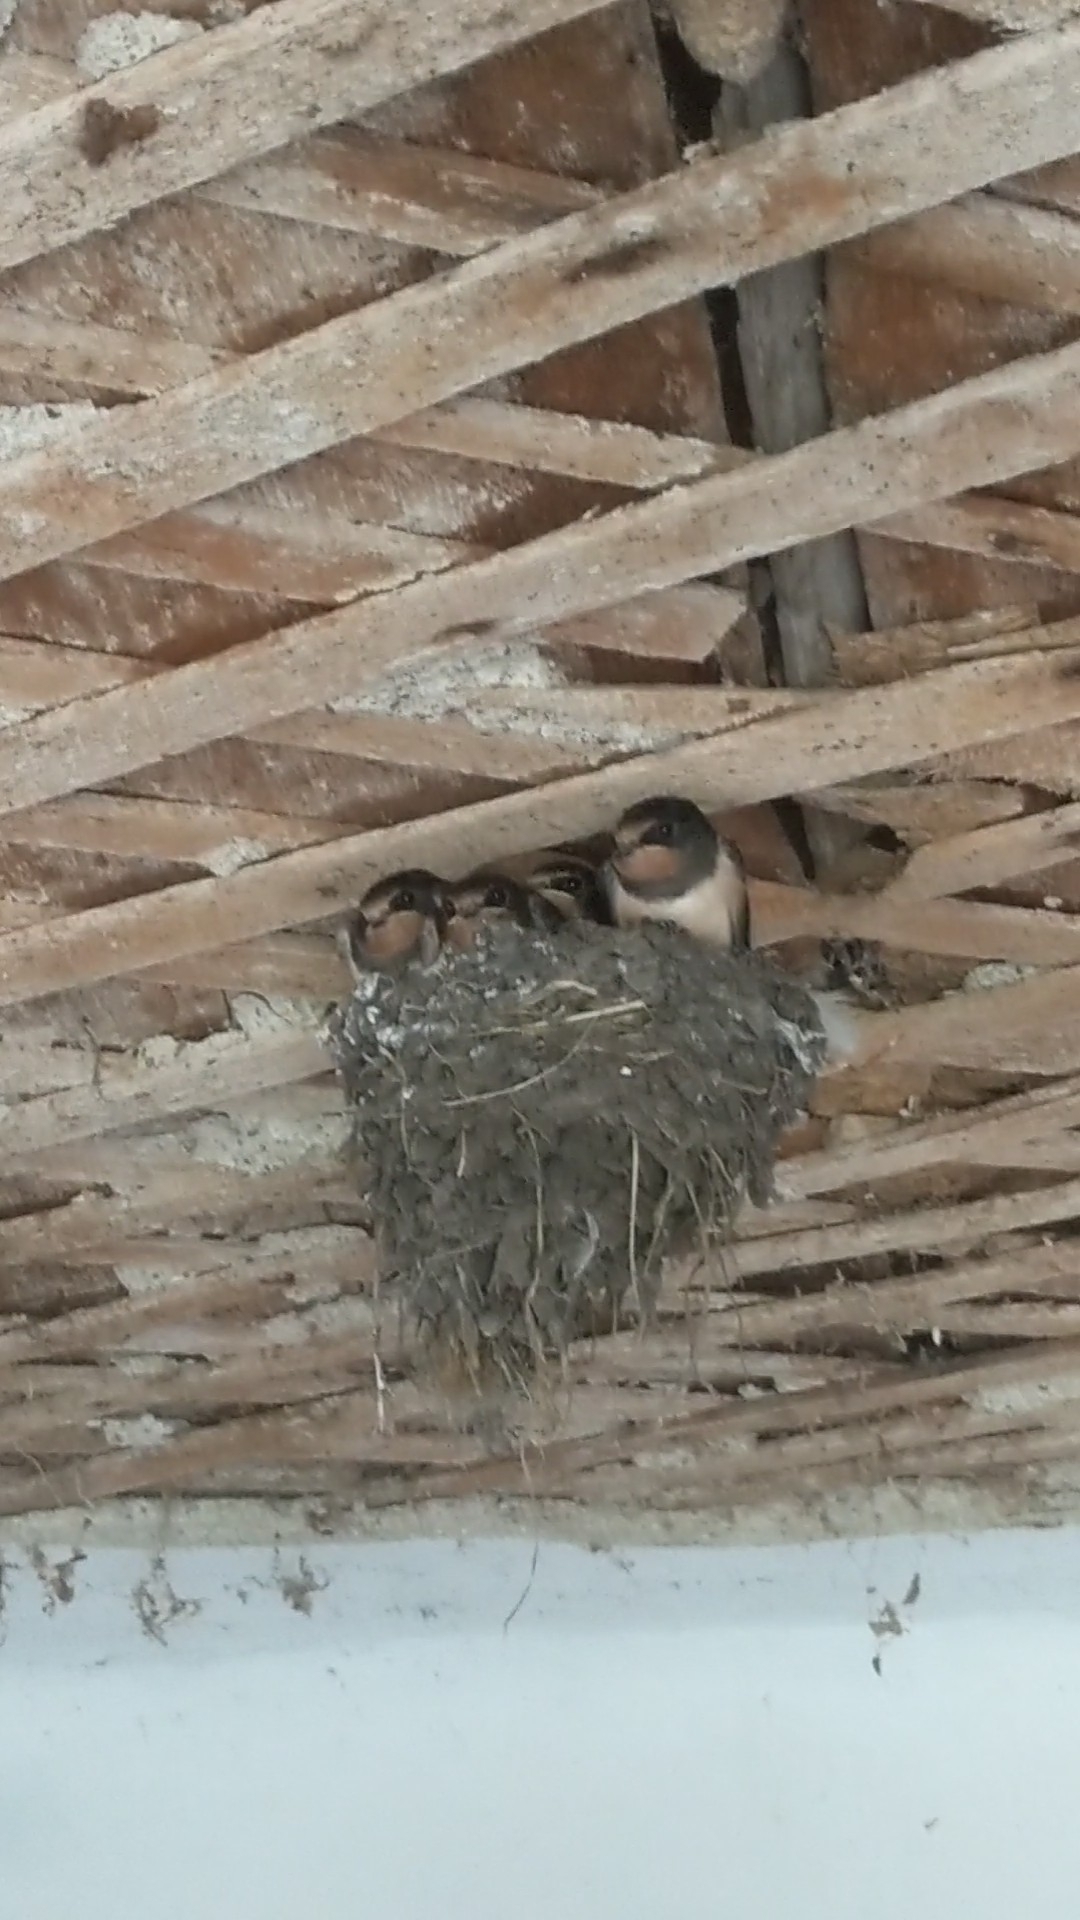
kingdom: Animalia
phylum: Chordata
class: Aves
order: Passeriformes
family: Hirundinidae
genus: Hirundo
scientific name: Hirundo rustica
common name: Barn swallow
